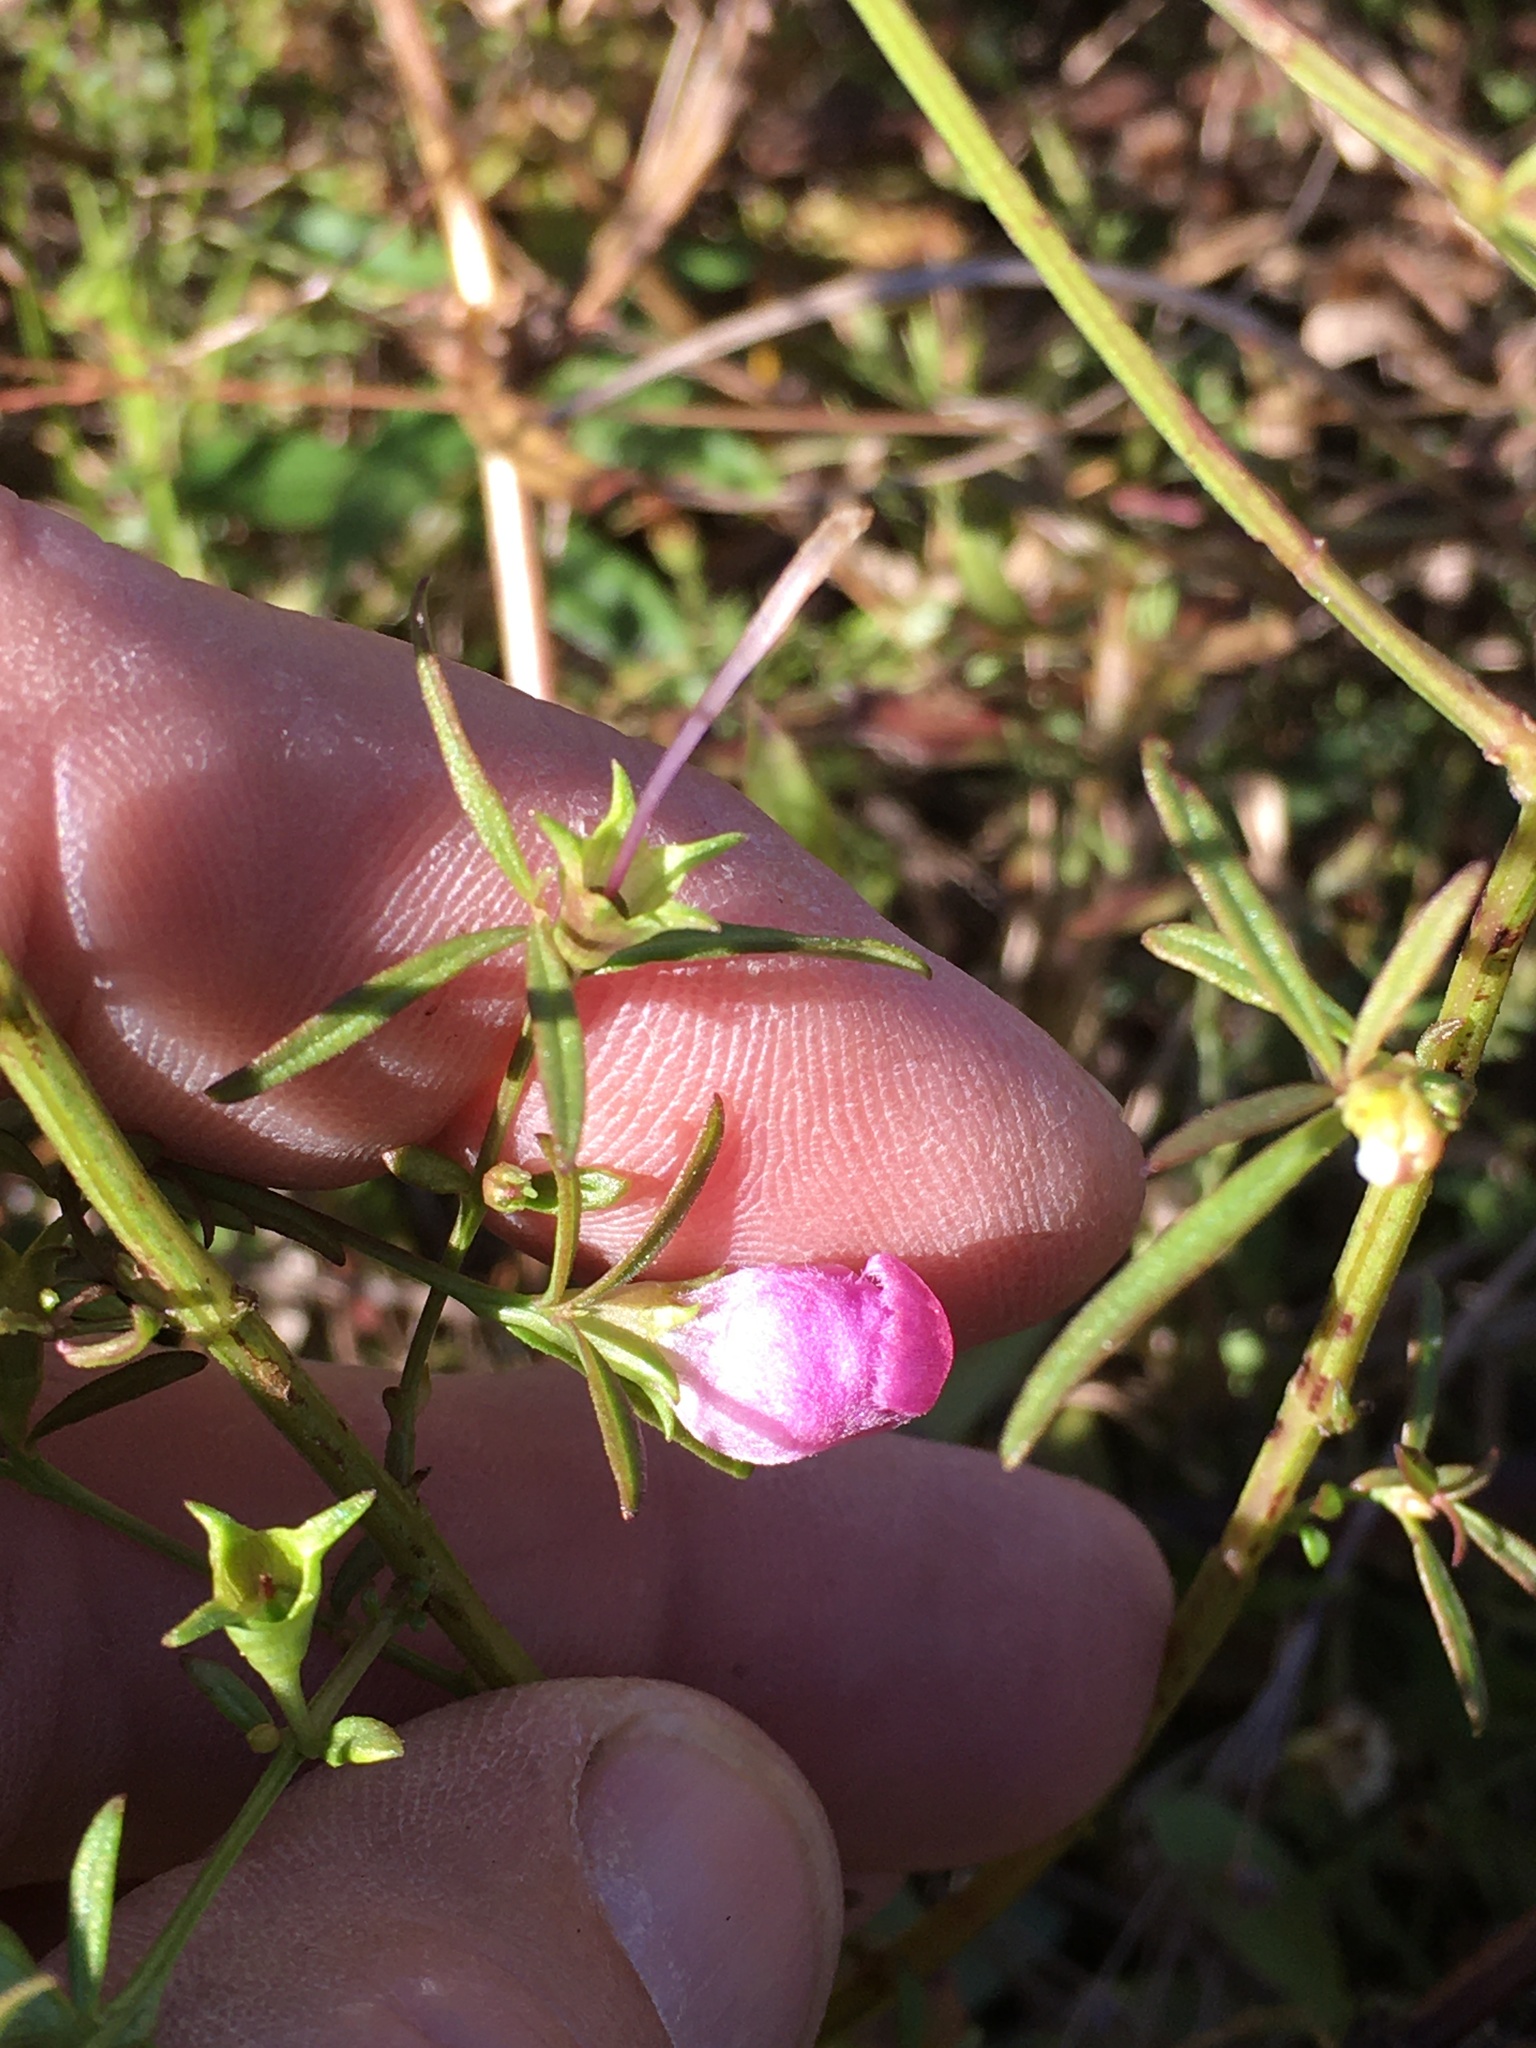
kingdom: Plantae
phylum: Tracheophyta
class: Magnoliopsida
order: Lamiales
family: Orobanchaceae
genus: Agalinis
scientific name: Agalinis purpurea
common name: Purple false foxglove
